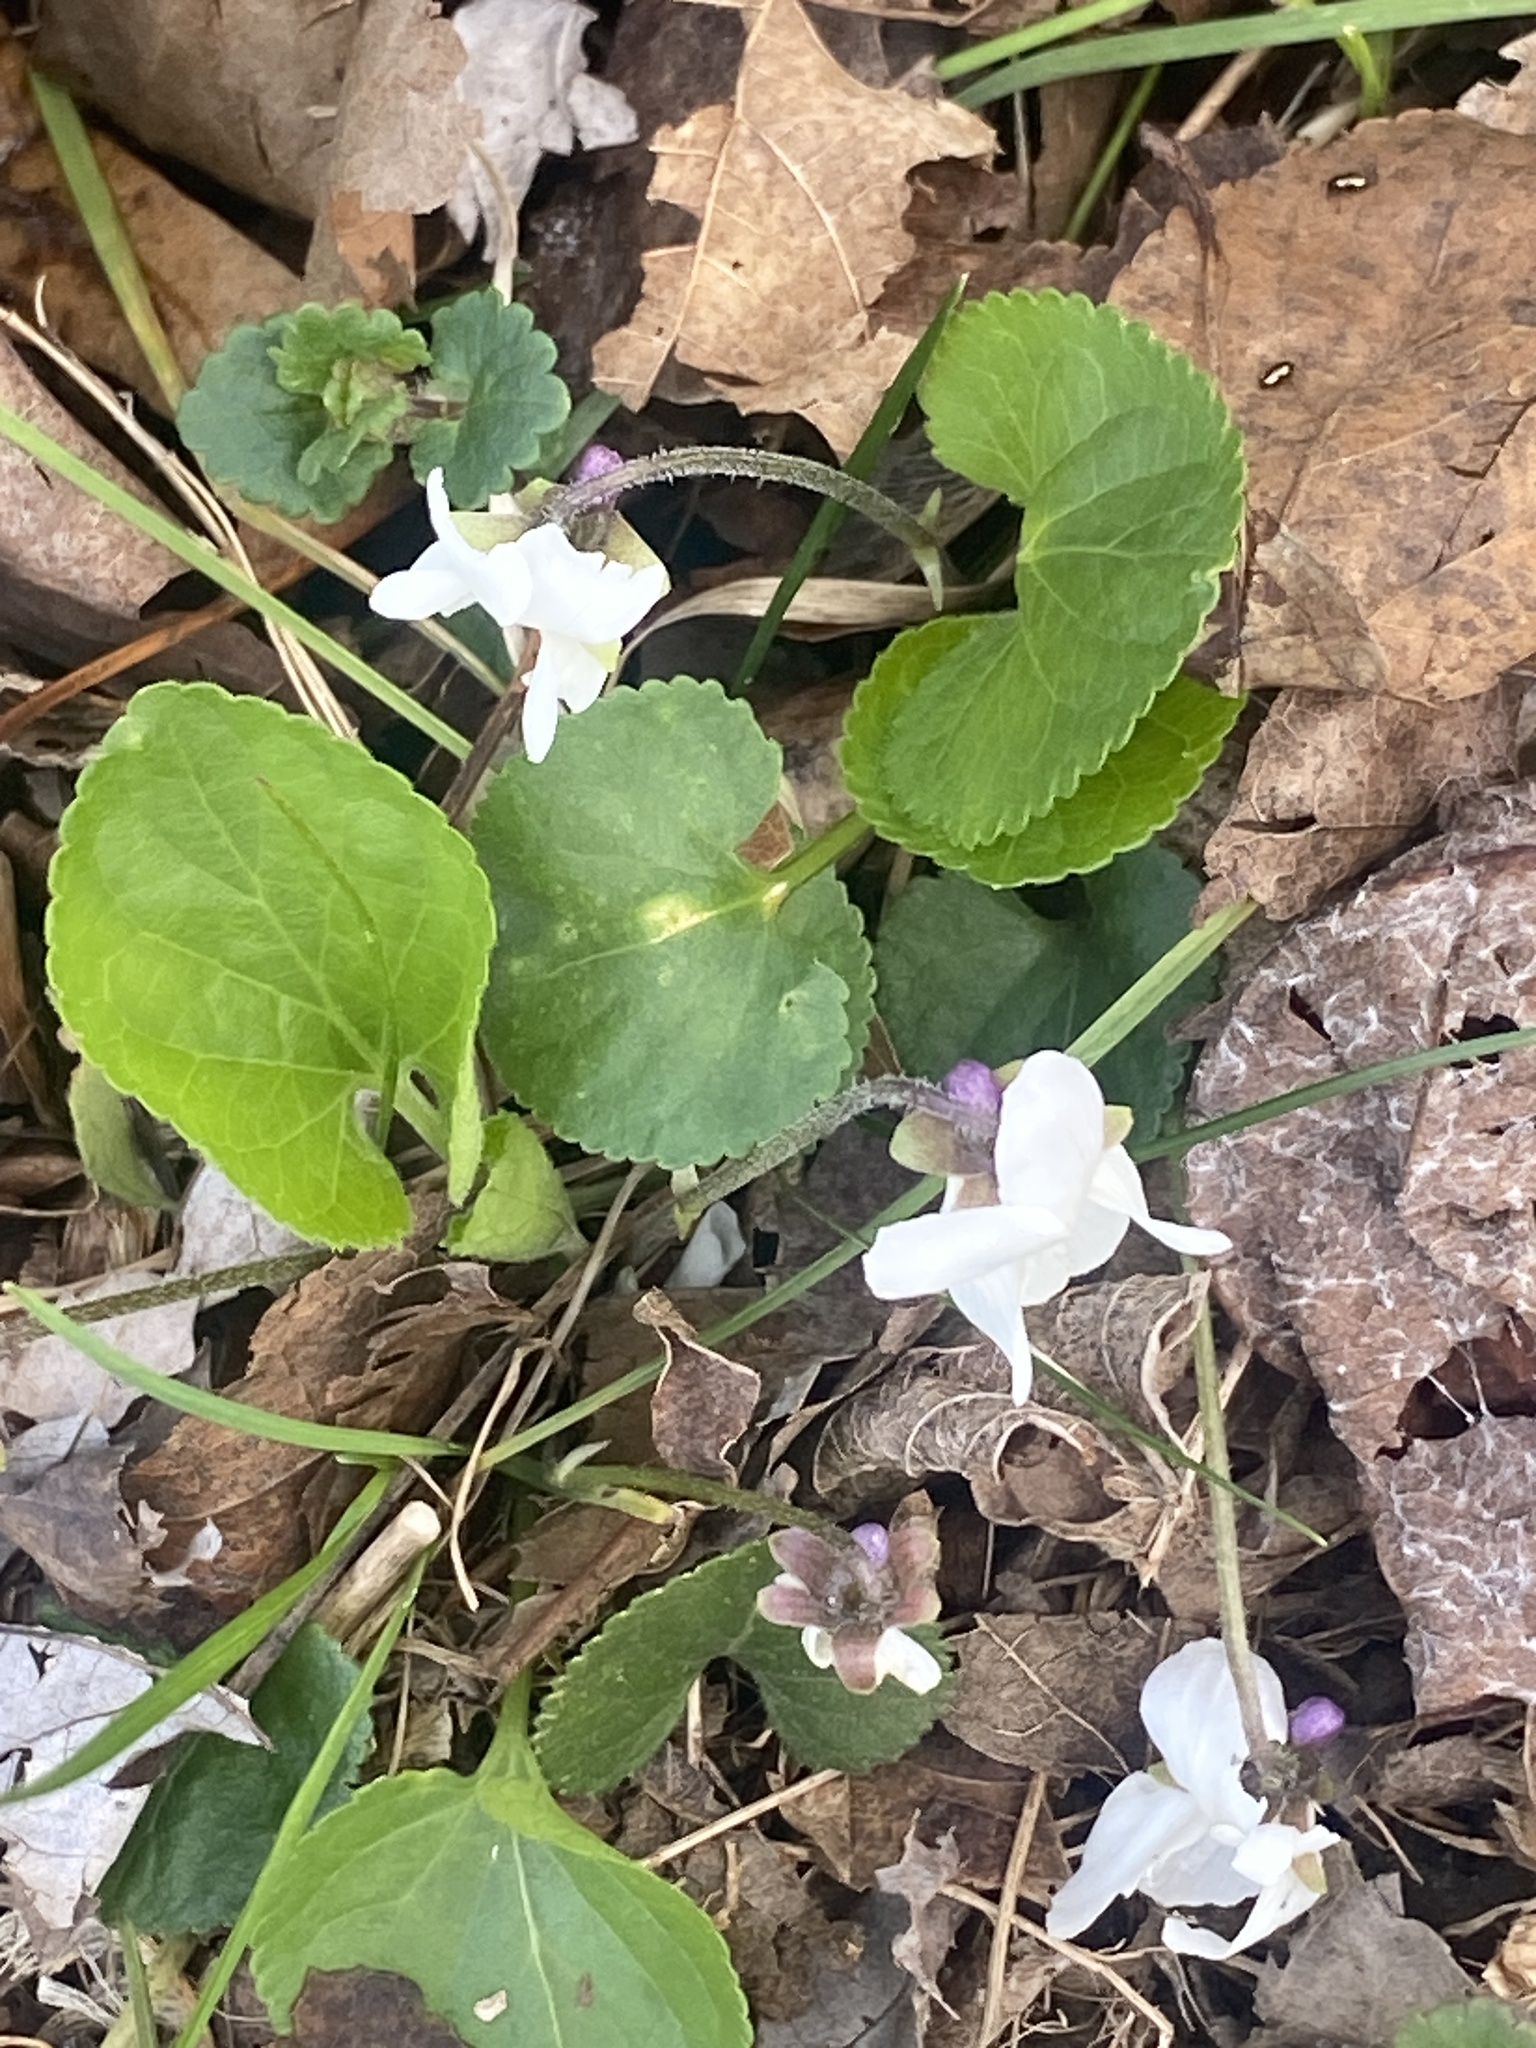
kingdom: Plantae
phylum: Tracheophyta
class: Magnoliopsida
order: Malpighiales
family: Violaceae
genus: Viola
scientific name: Viola odorata
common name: Sweet violet
